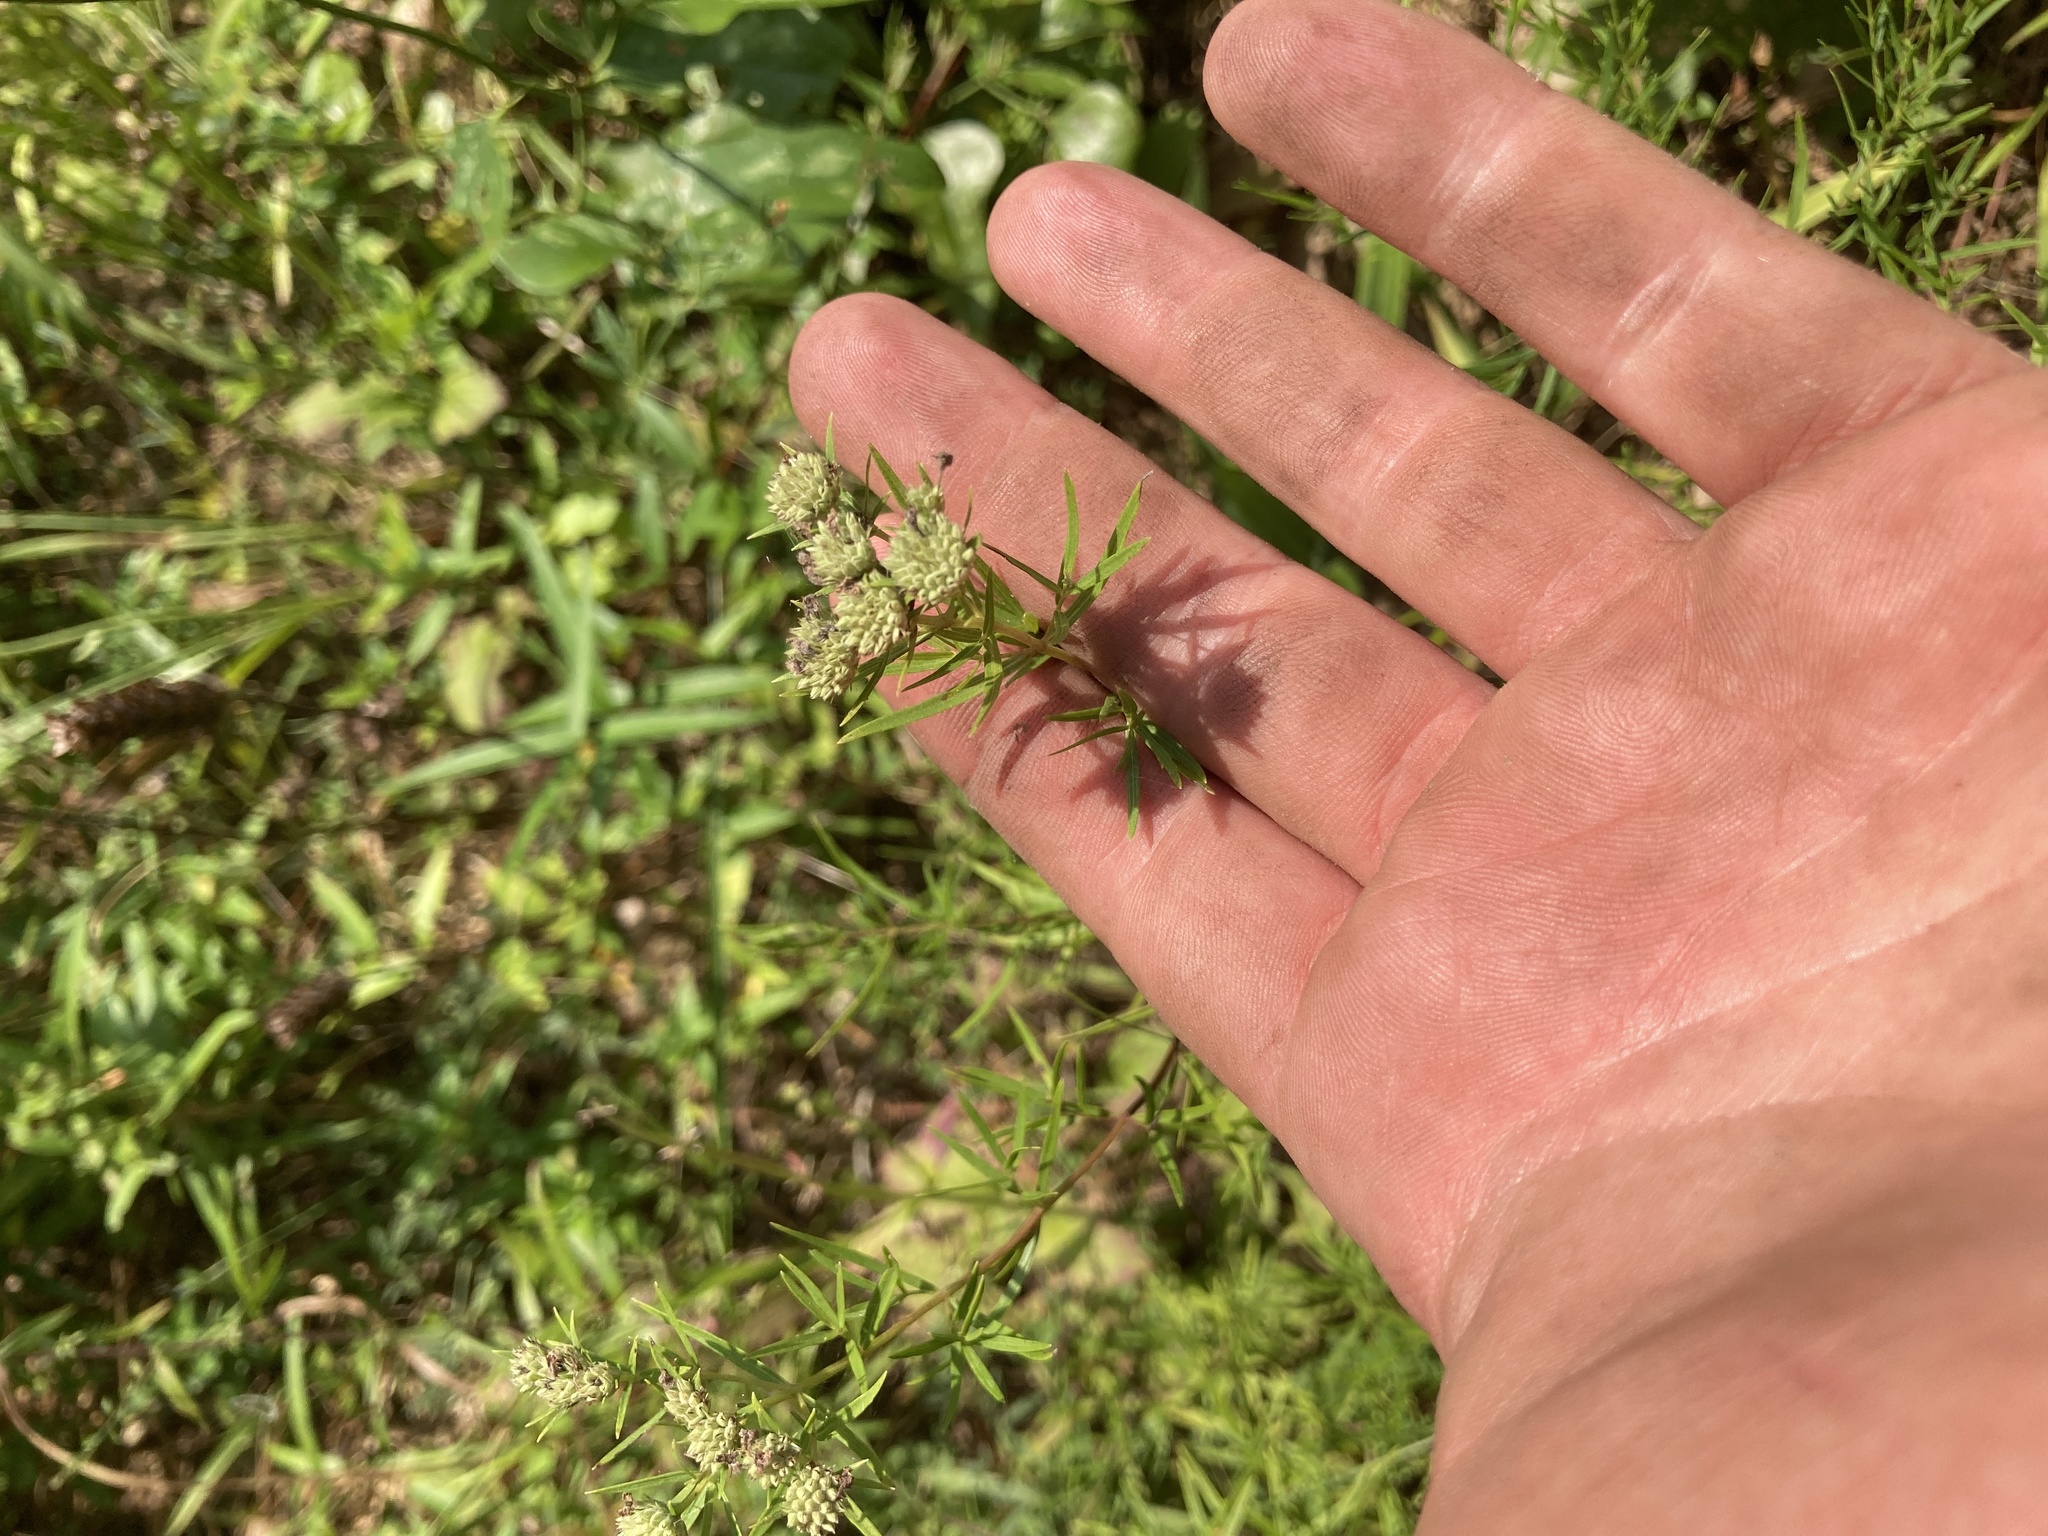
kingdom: Plantae
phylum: Tracheophyta
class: Magnoliopsida
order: Lamiales
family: Lamiaceae
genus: Pycnanthemum
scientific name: Pycnanthemum tenuifolium
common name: Narrow-leaf mountain-mint
